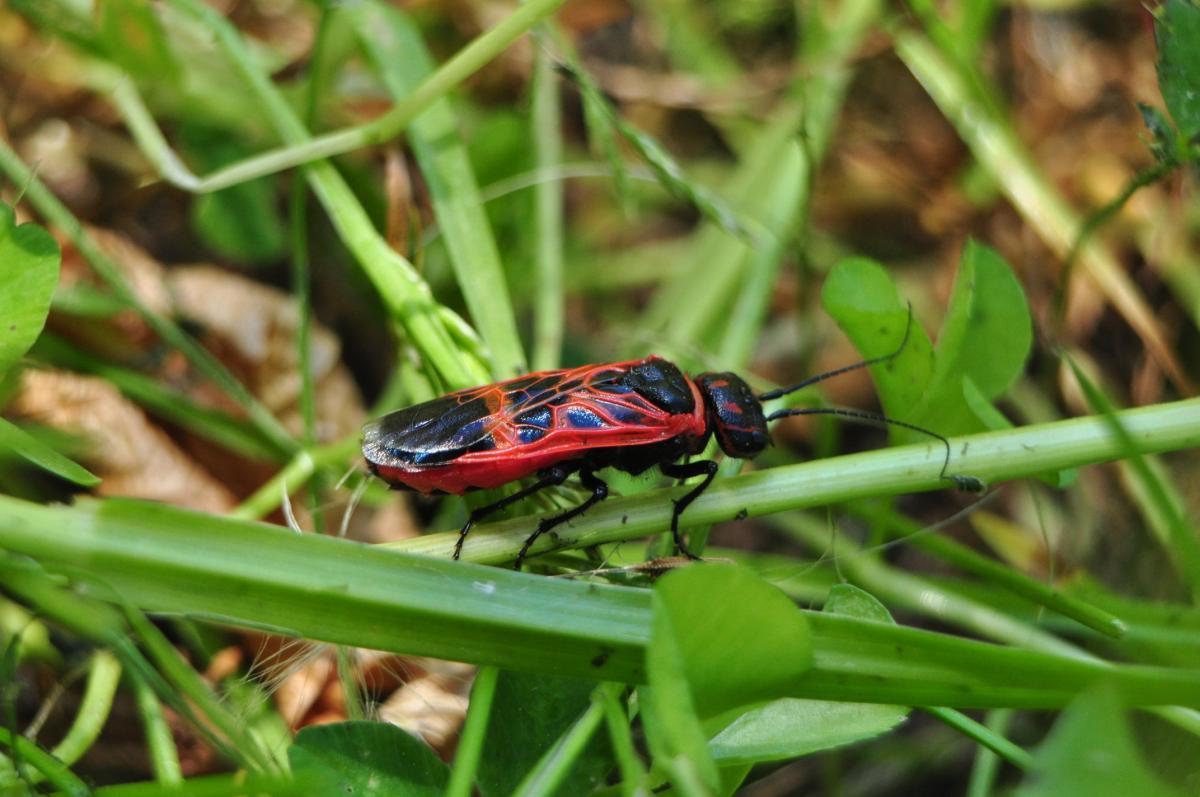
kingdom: Animalia
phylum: Arthropoda
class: Insecta
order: Hymenoptera
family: Pamphiliidae
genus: Caenolyda
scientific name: Caenolyda reticulata
